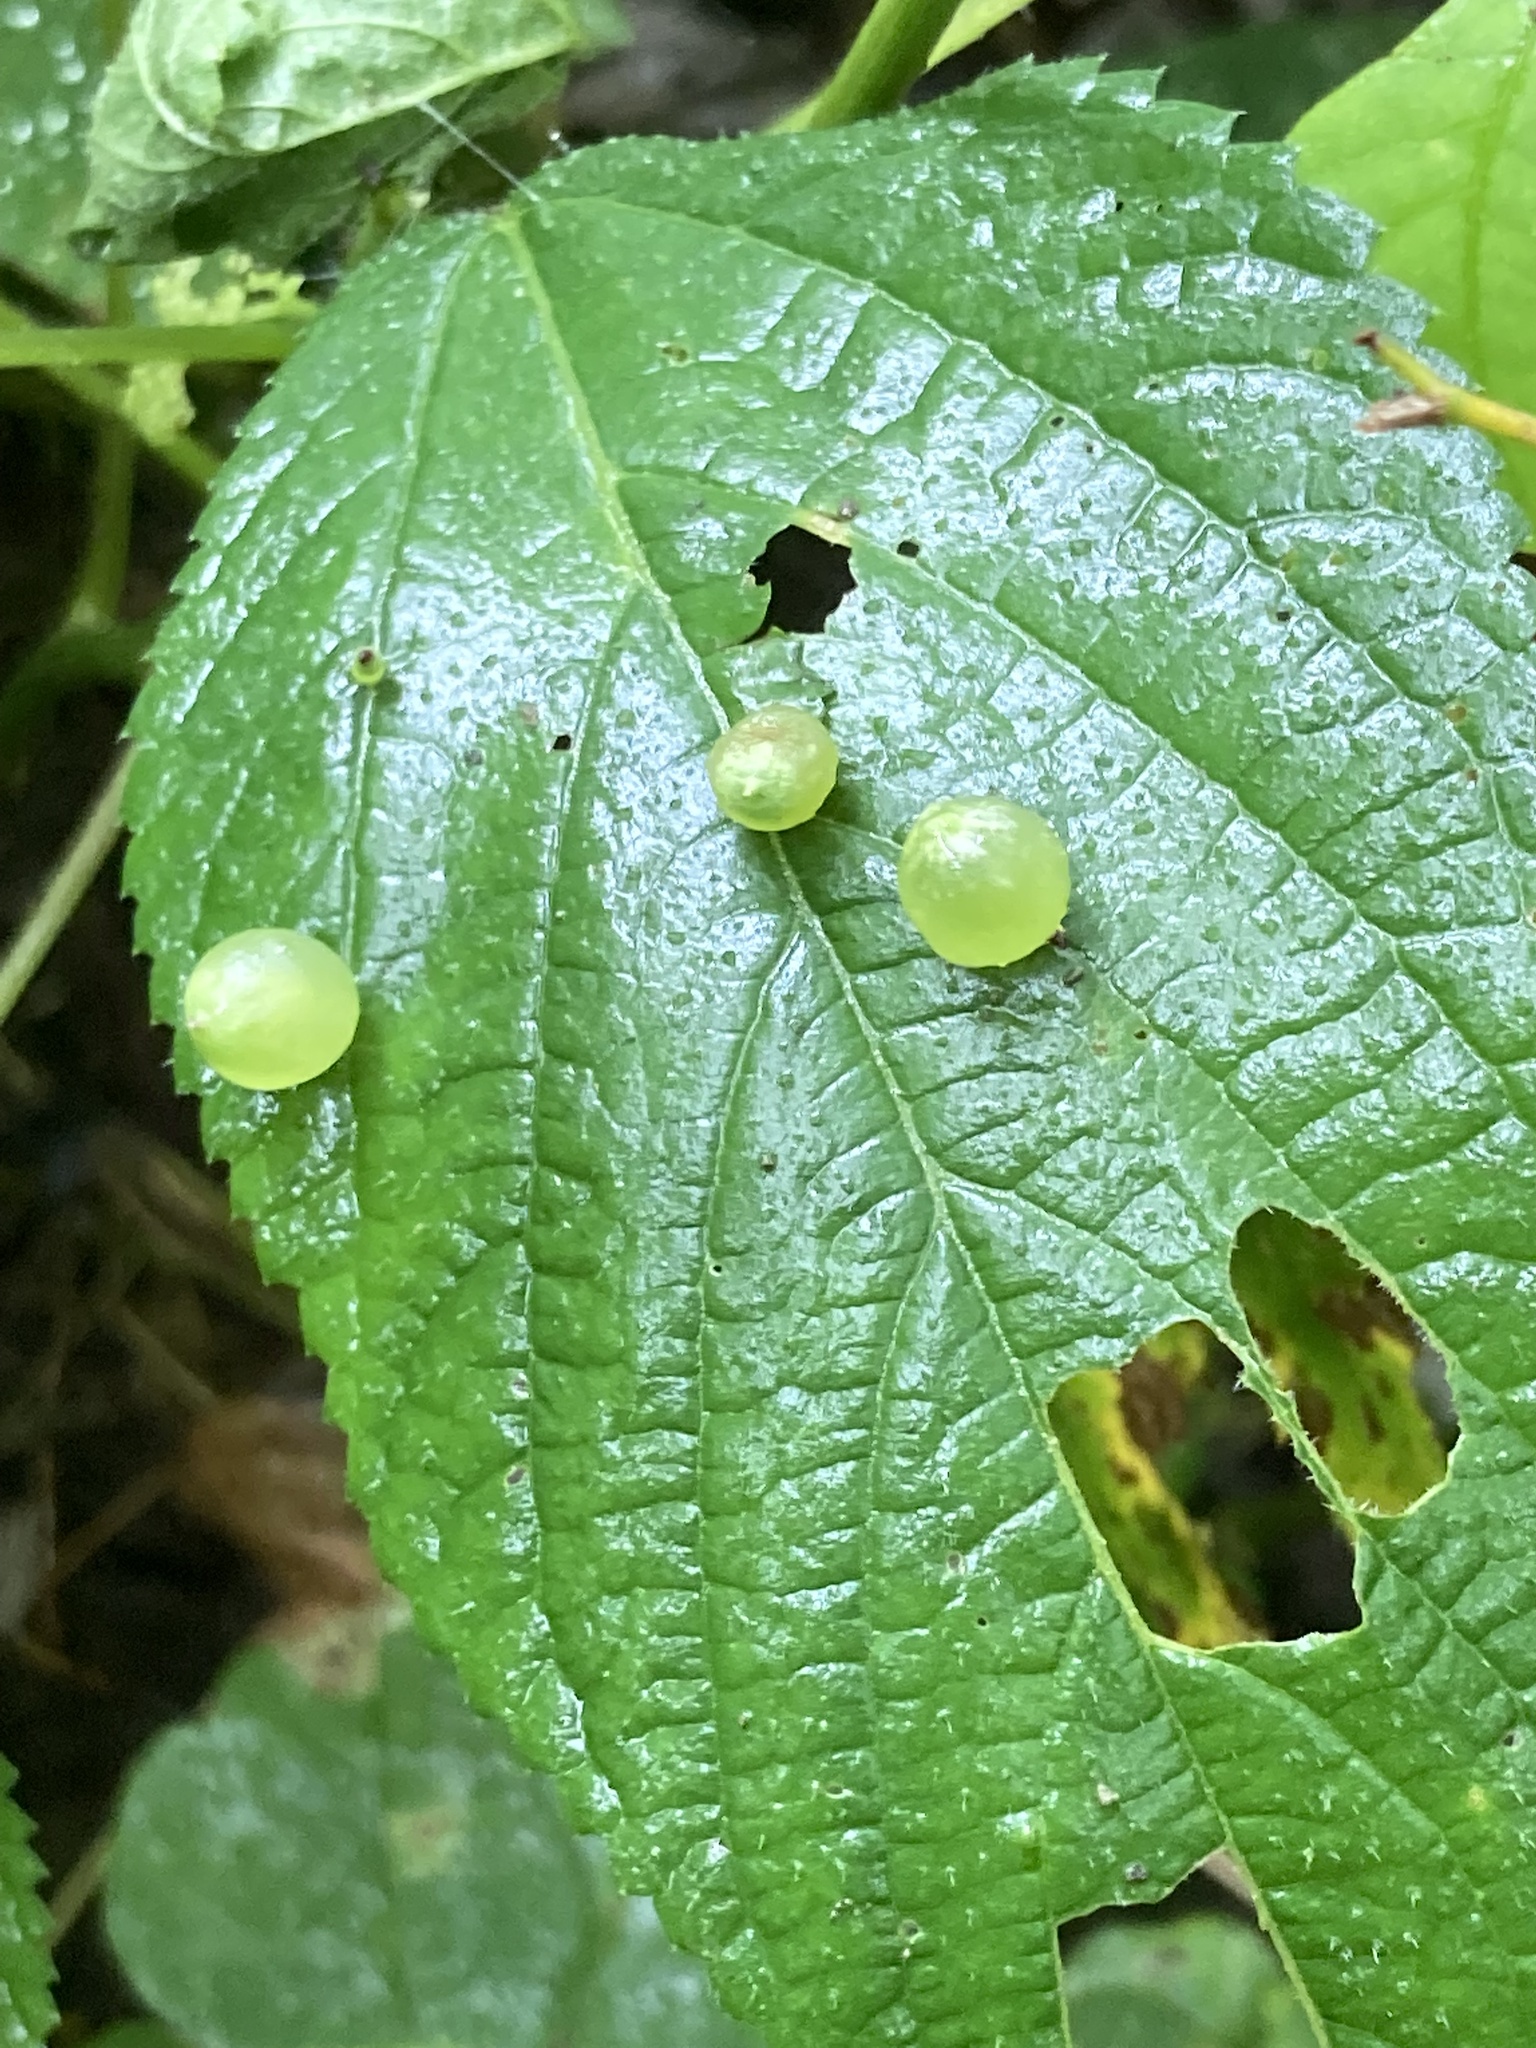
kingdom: Animalia
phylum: Arthropoda
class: Insecta
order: Diptera
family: Cecidomyiidae
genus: Dasineura
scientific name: Dasineura investita
